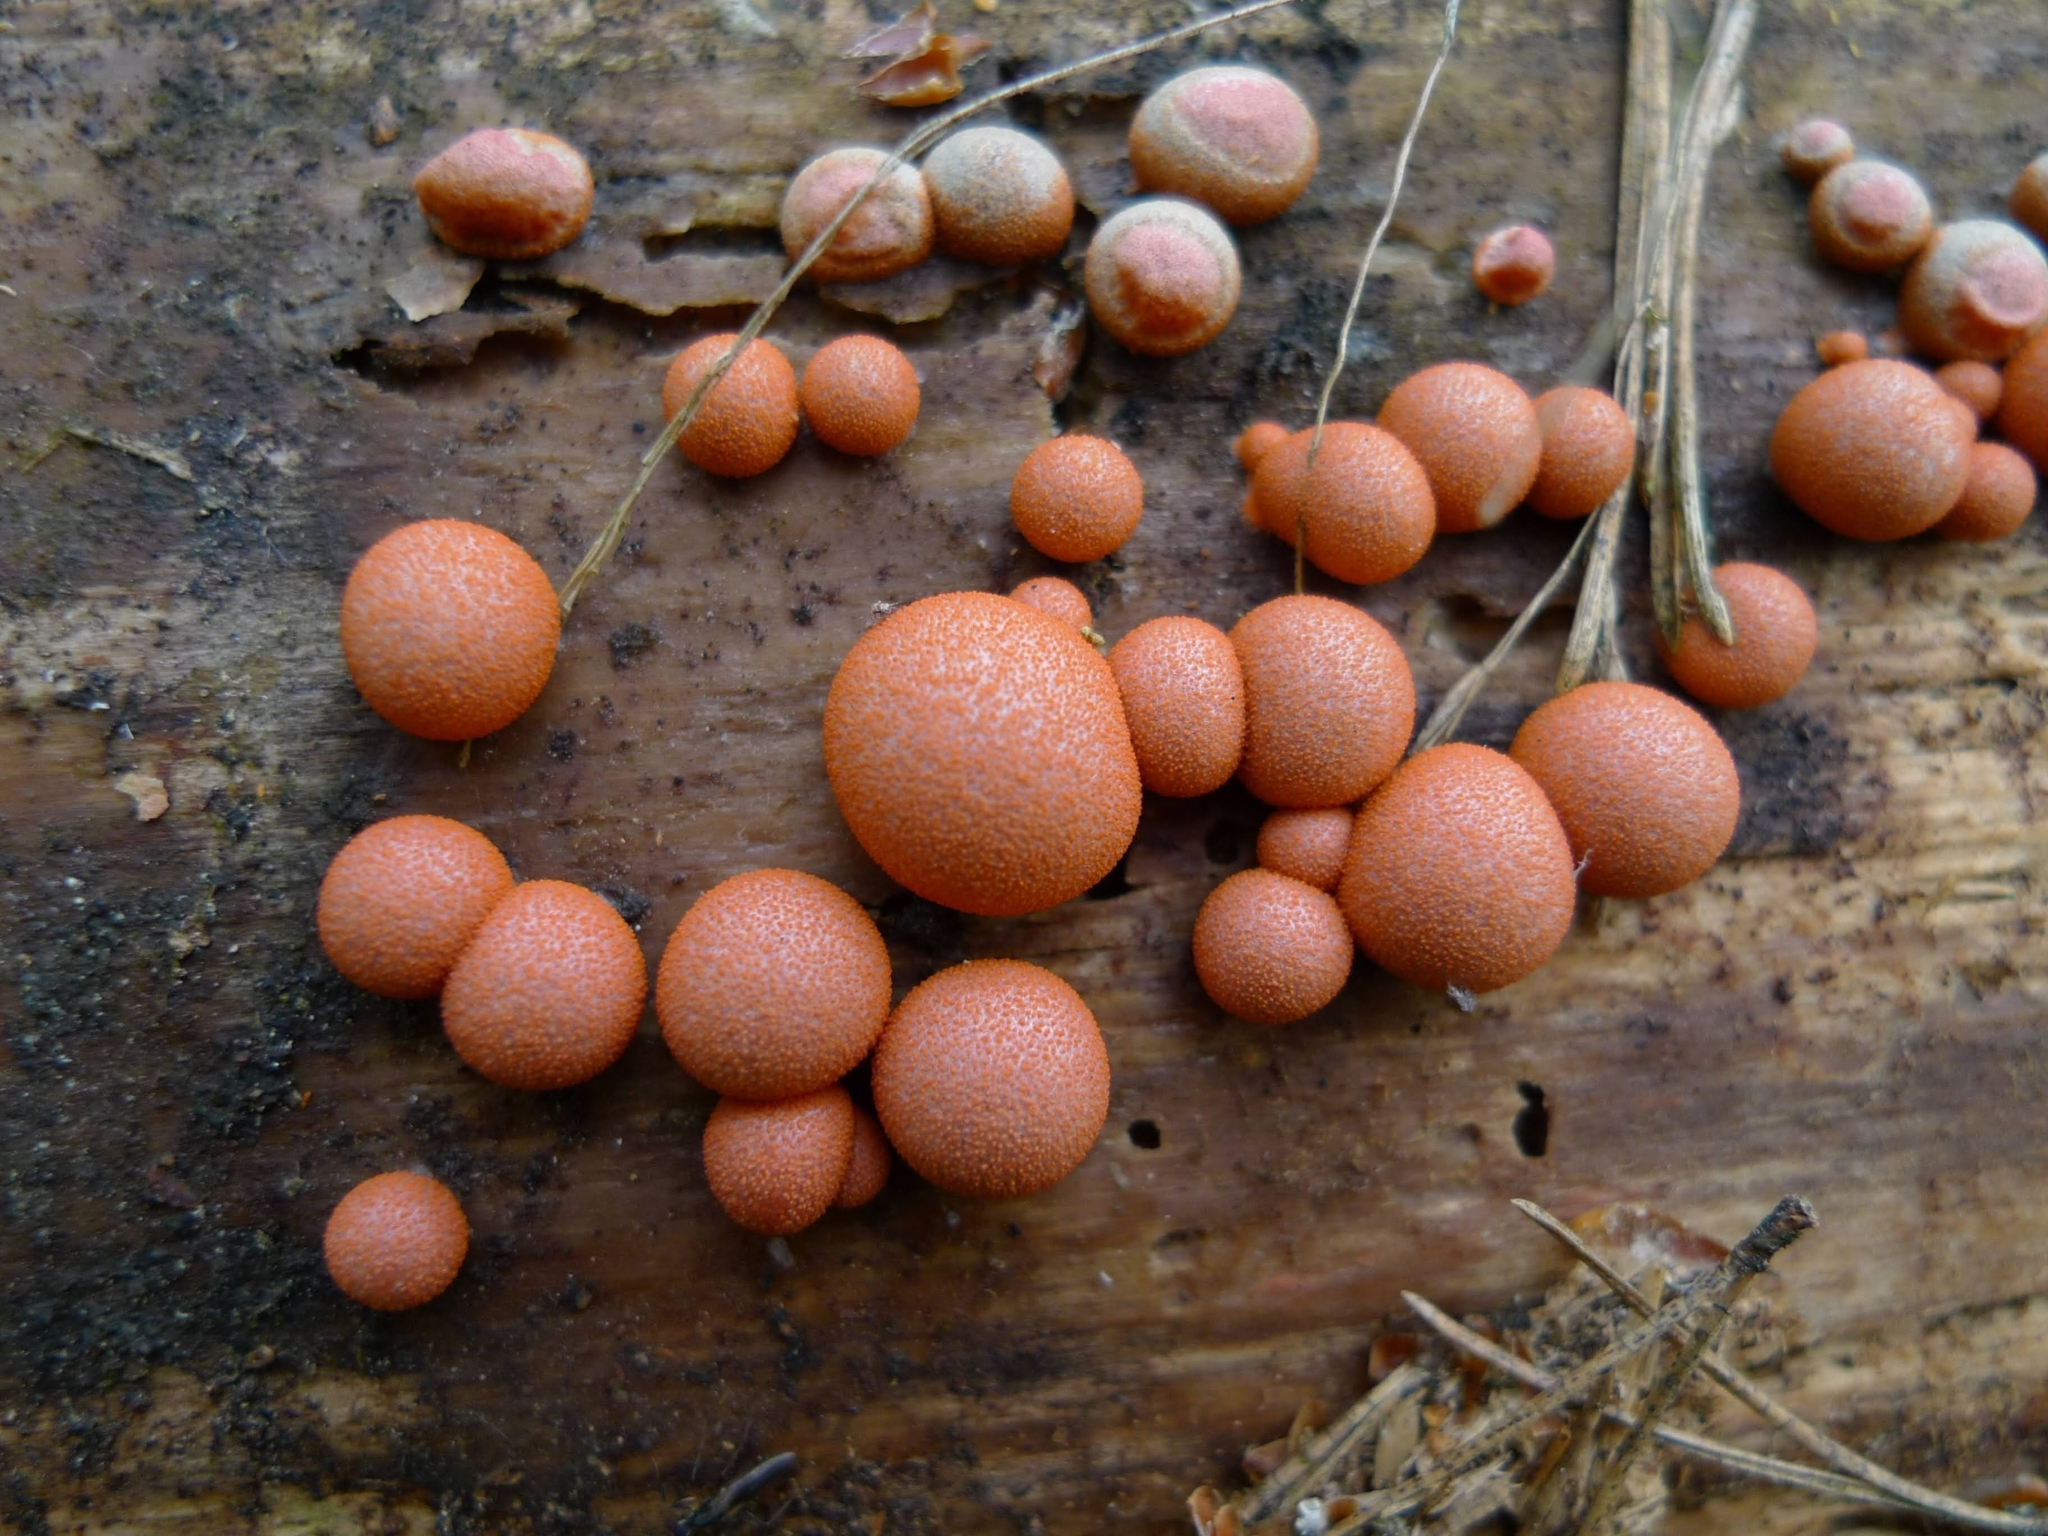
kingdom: Protozoa
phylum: Mycetozoa
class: Myxomycetes
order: Cribrariales
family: Tubiferaceae
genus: Lycogala
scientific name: Lycogala epidendrum
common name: Wolf's milk
